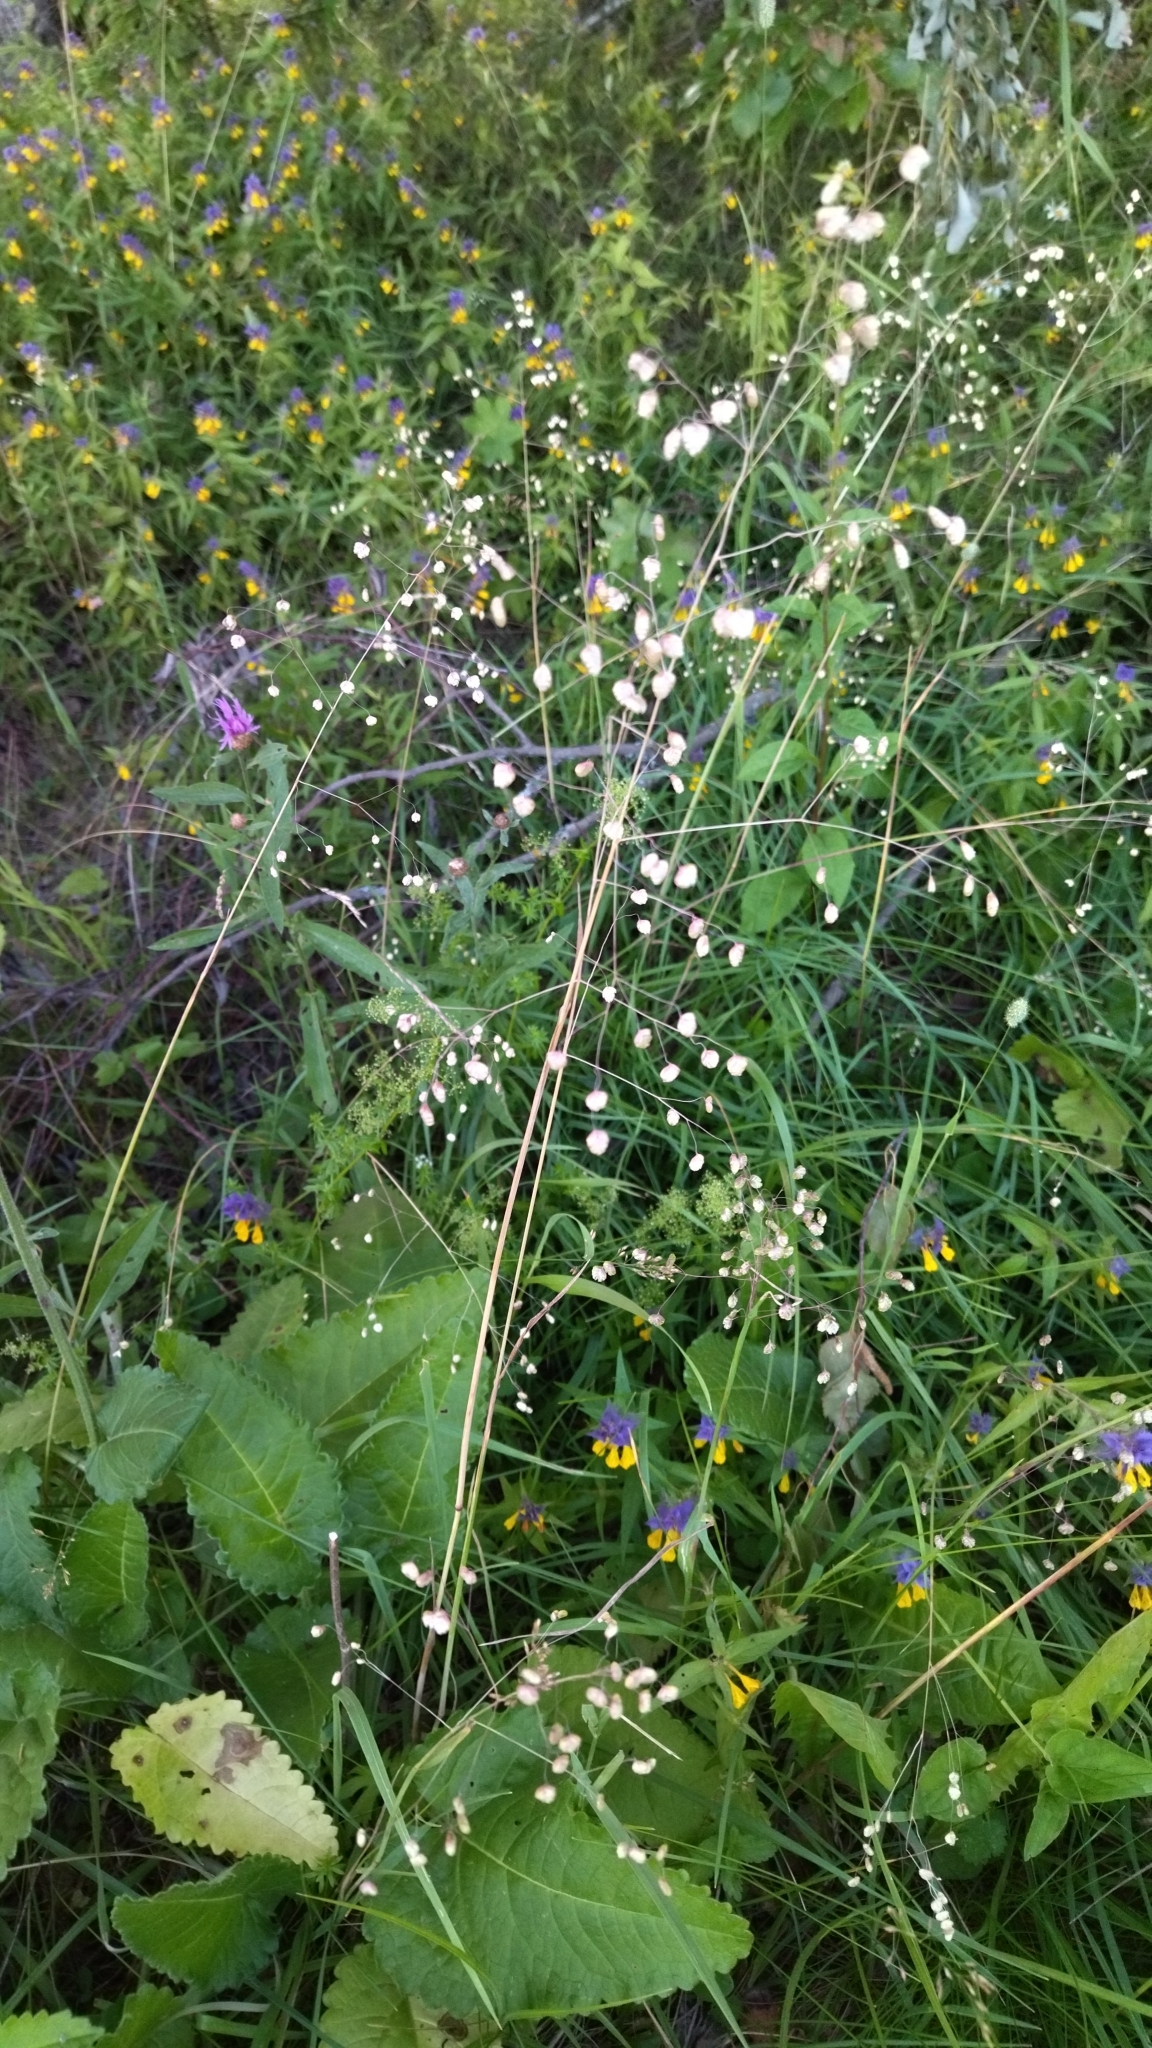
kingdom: Plantae
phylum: Tracheophyta
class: Liliopsida
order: Poales
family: Poaceae
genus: Briza
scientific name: Briza media
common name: Quaking grass
